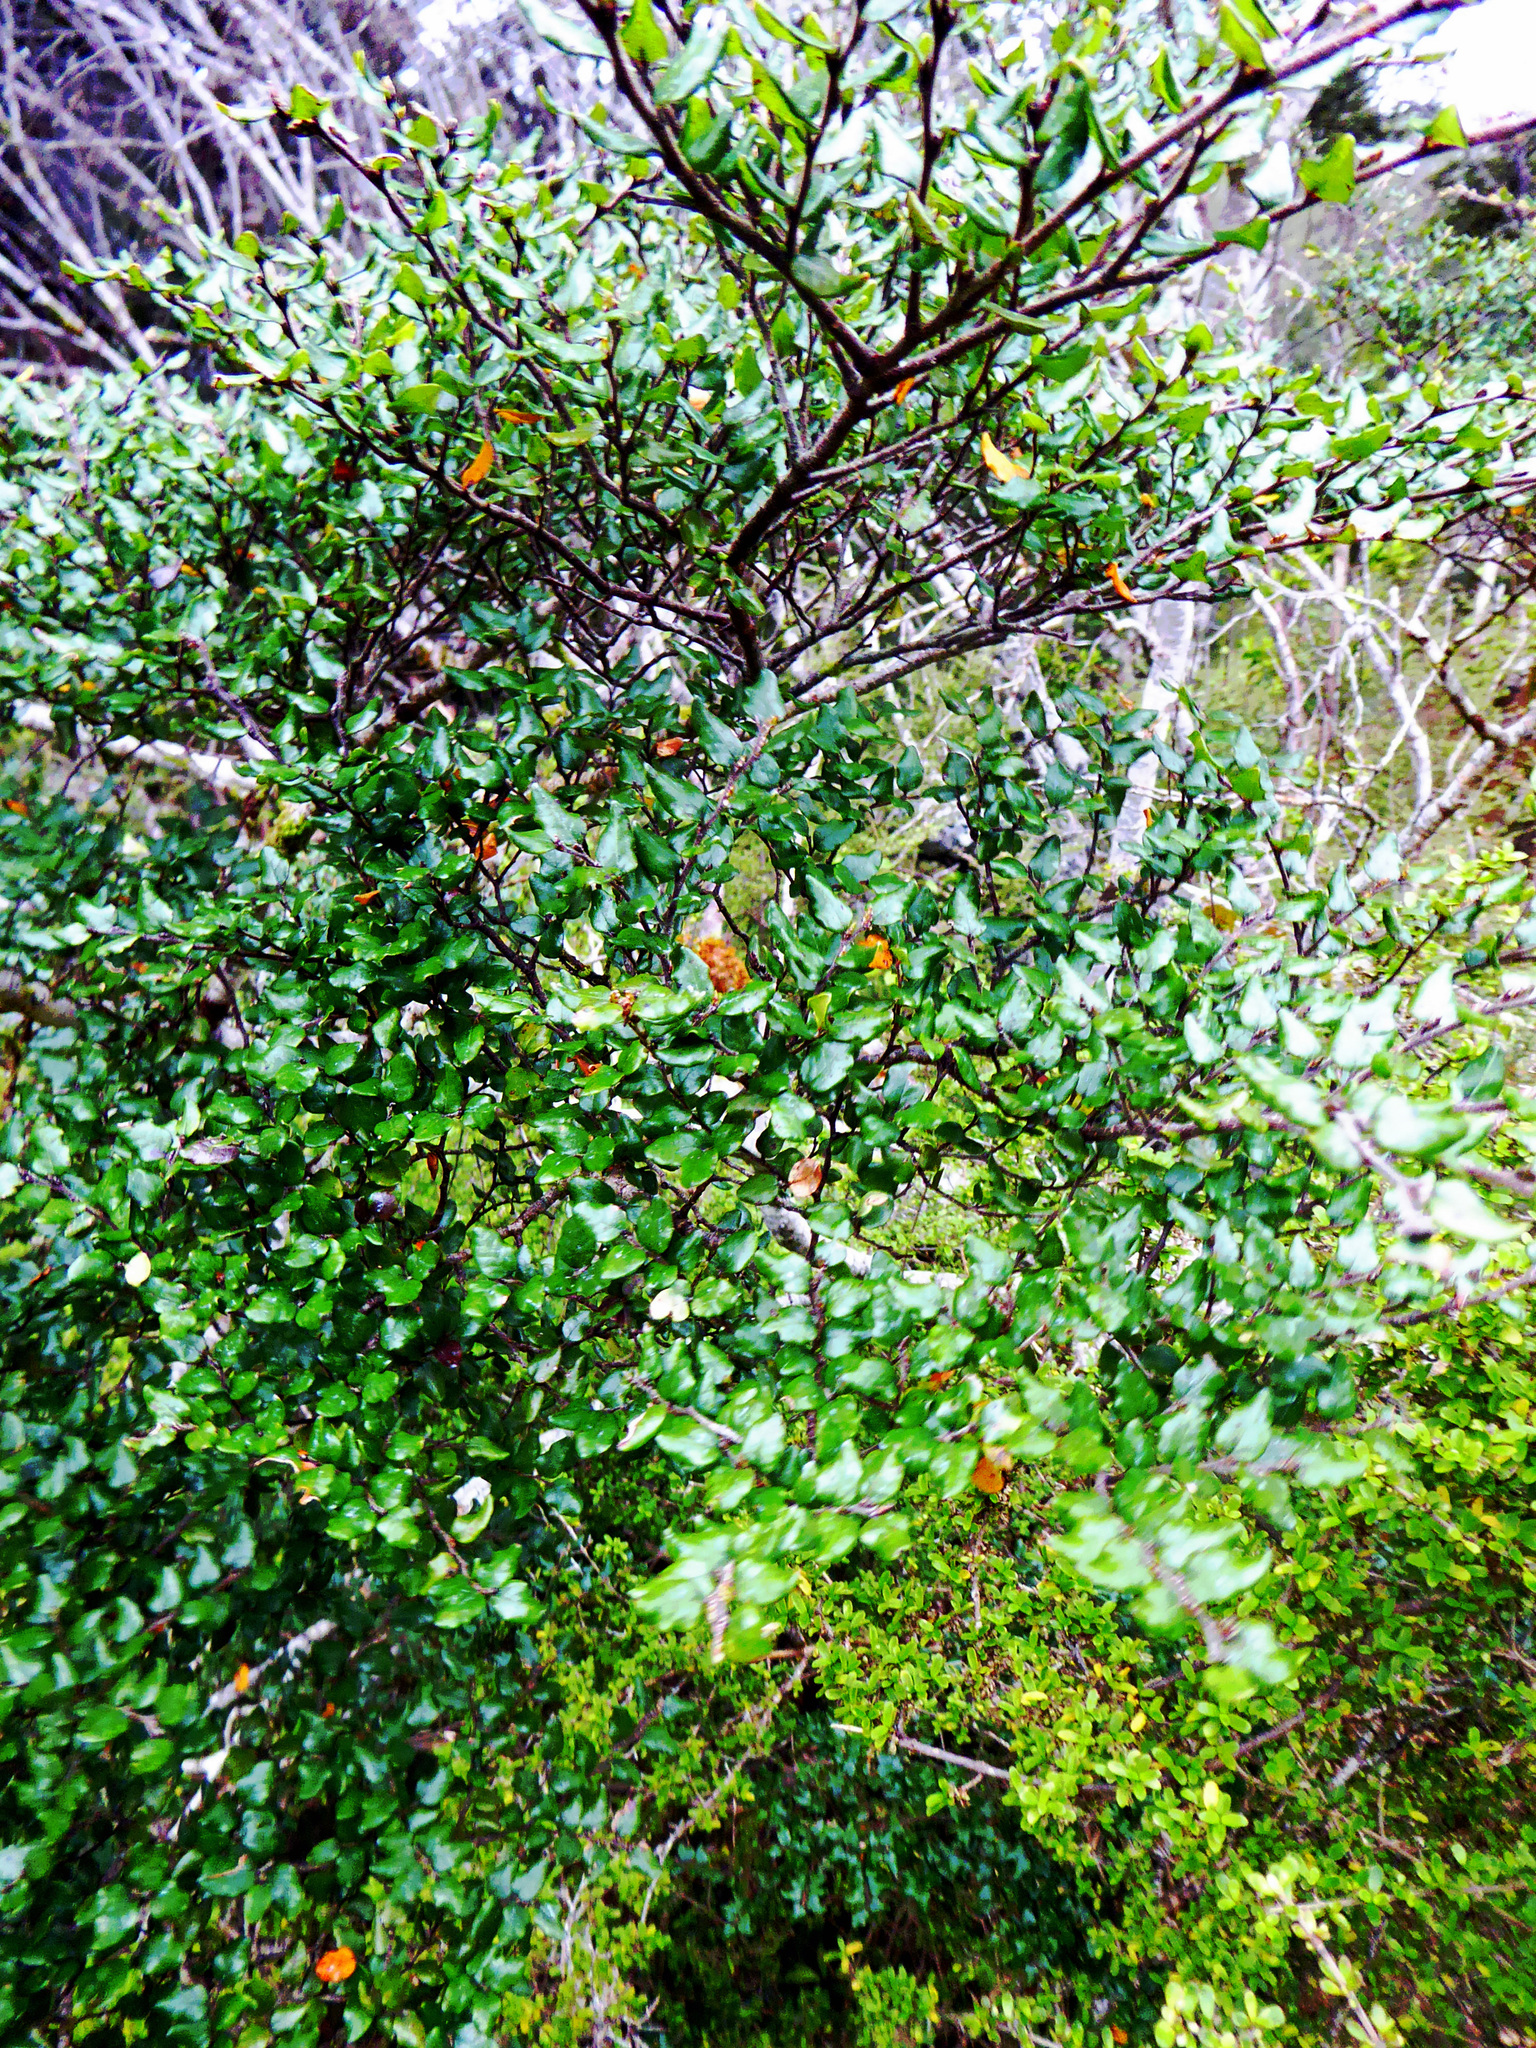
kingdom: Plantae
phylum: Tracheophyta
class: Magnoliopsida
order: Fagales
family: Nothofagaceae
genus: Nothofagus
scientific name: Nothofagus
